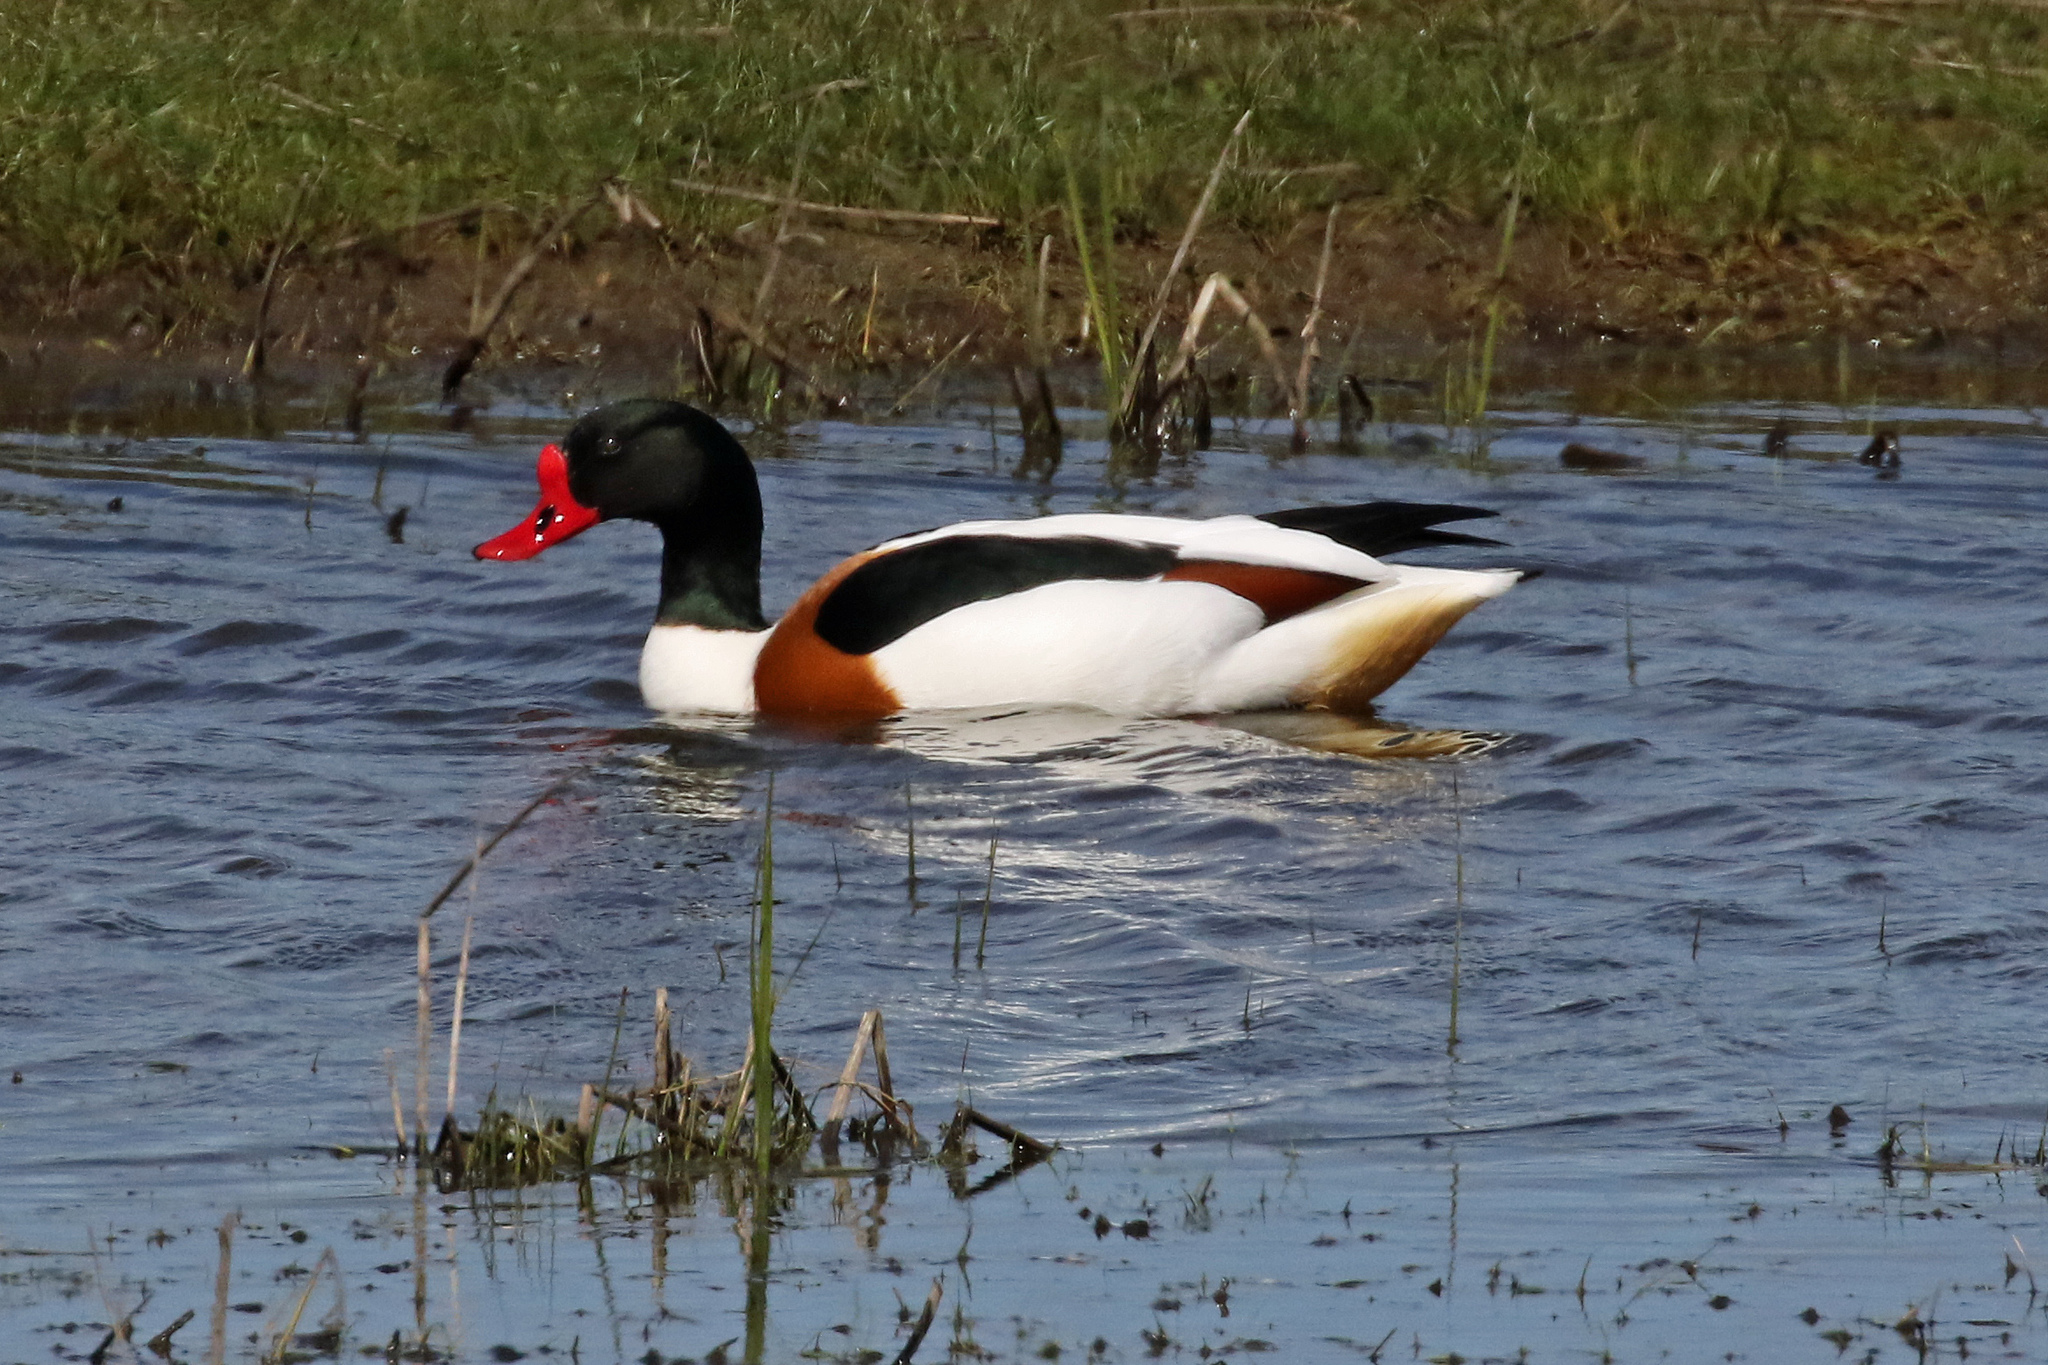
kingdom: Animalia
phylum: Chordata
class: Aves
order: Anseriformes
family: Anatidae
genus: Tadorna
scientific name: Tadorna tadorna
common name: Common shelduck
